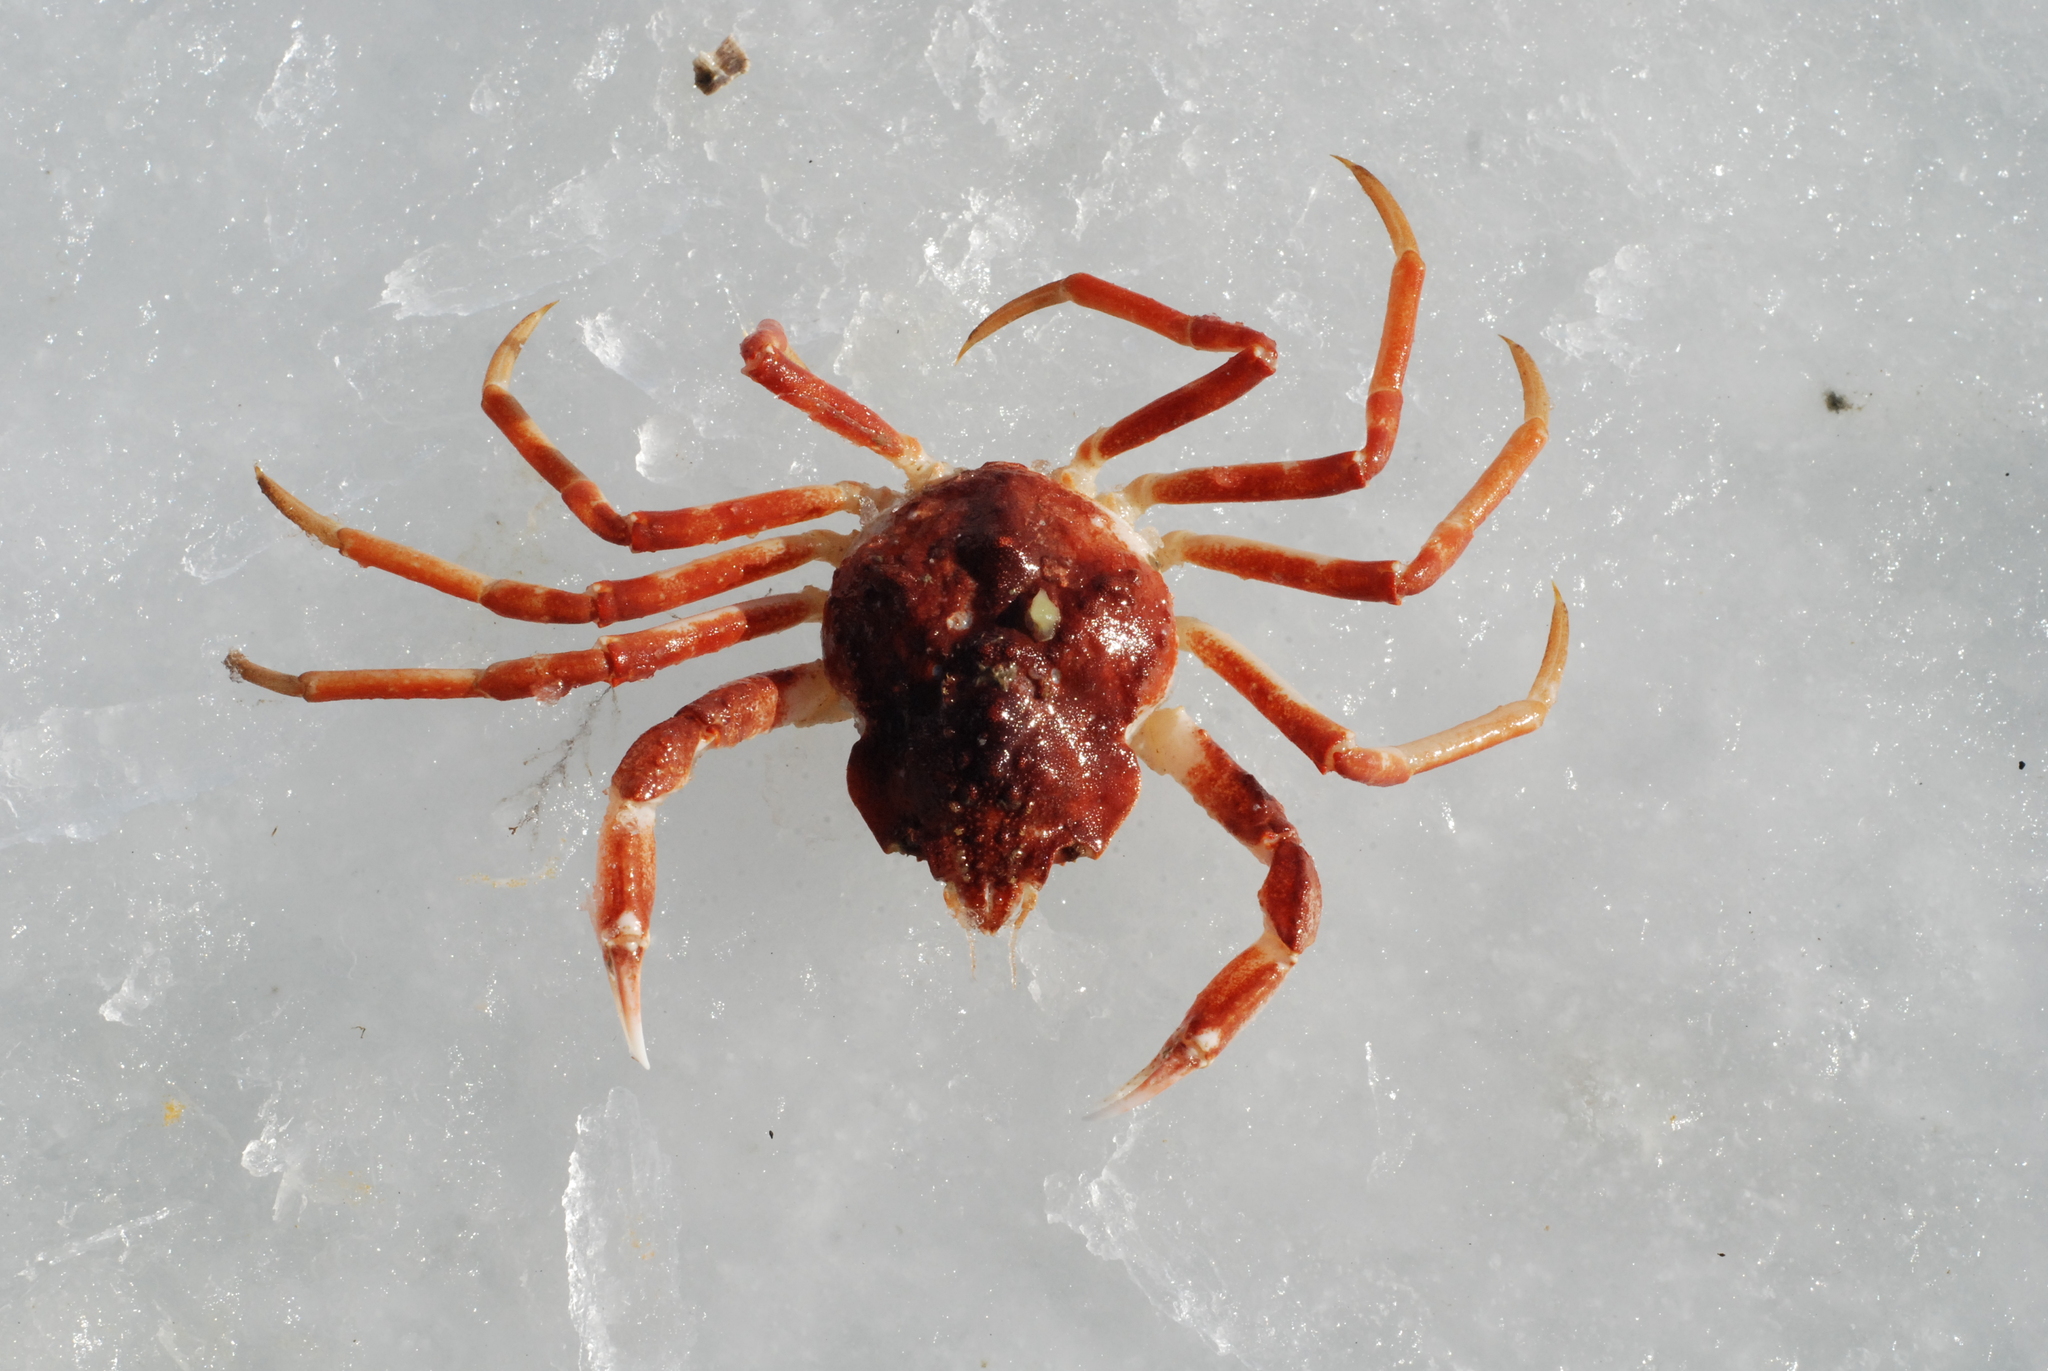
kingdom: Animalia
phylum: Arthropoda
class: Malacostraca
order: Decapoda
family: Oregoniidae
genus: Hyas
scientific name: Hyas alutaceus
